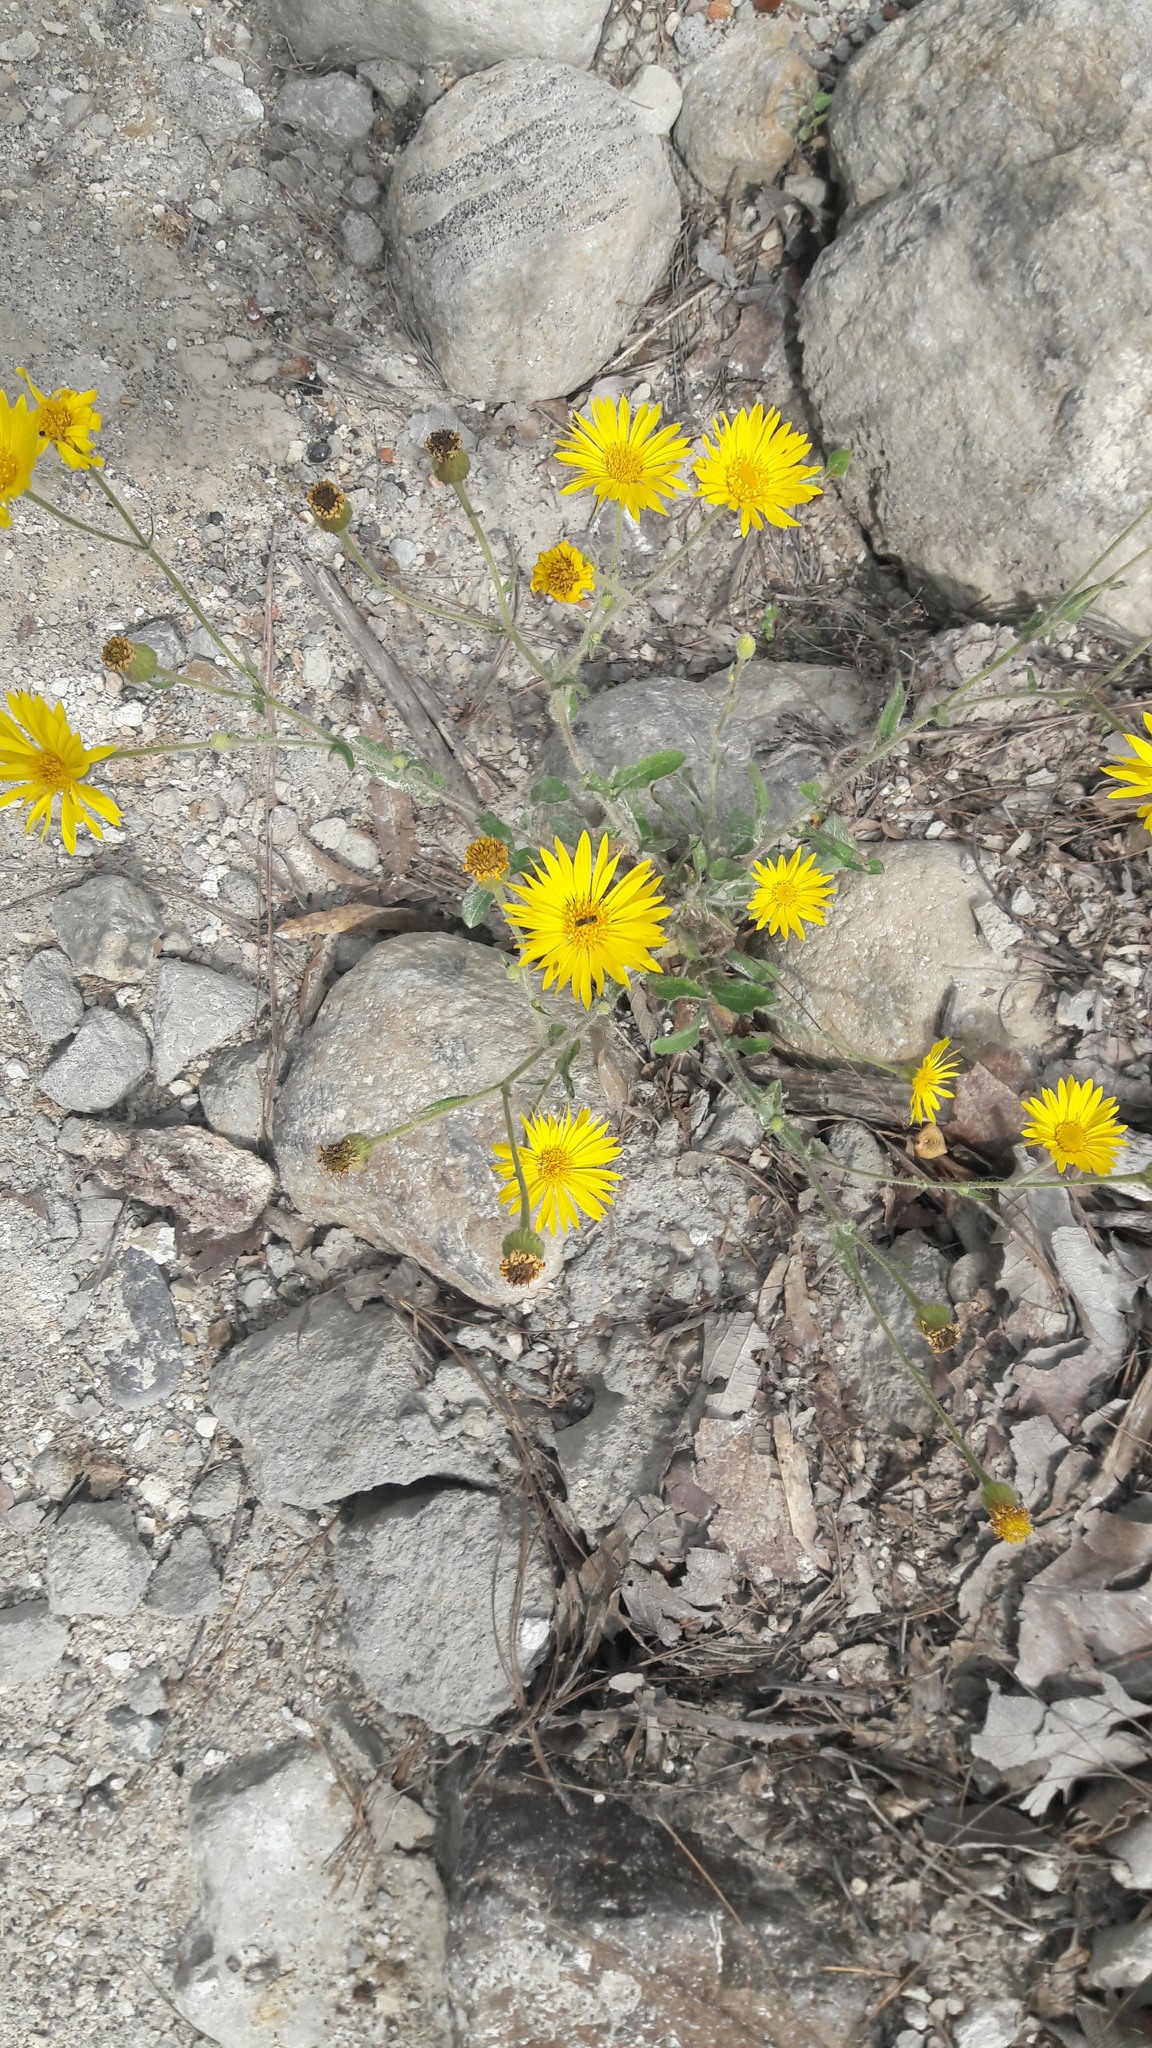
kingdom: Plantae
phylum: Tracheophyta
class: Magnoliopsida
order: Asterales
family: Asteraceae
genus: Heterotheca
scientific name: Heterotheca inuloides
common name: False arnica
